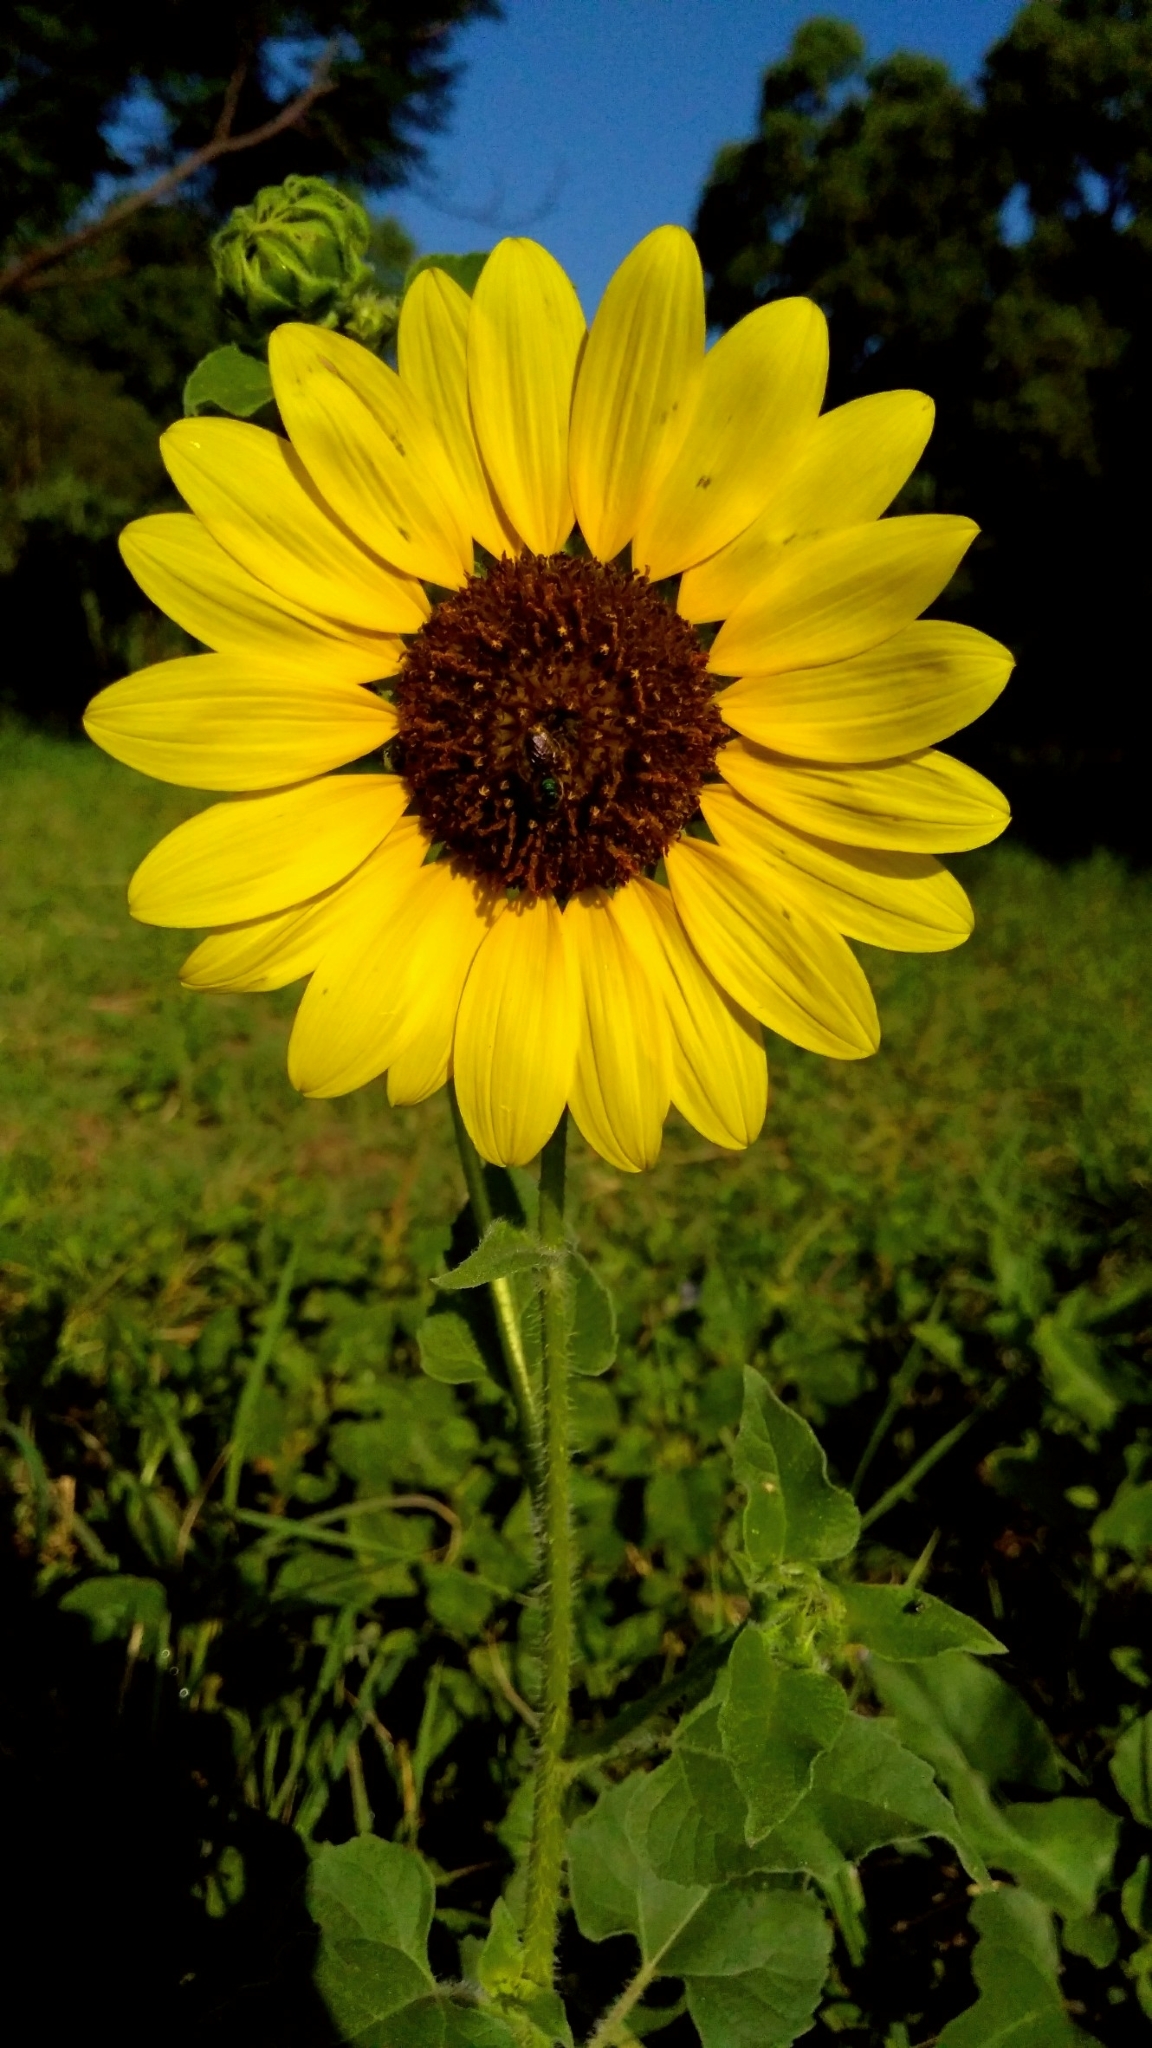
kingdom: Plantae
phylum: Tracheophyta
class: Magnoliopsida
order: Asterales
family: Asteraceae
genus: Helianthus
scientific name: Helianthus annuus
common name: Sunflower
